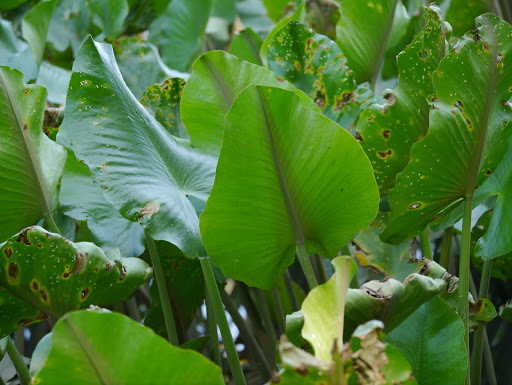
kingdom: Plantae
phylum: Tracheophyta
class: Magnoliopsida
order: Nymphaeales
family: Nymphaeaceae
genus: Nuphar
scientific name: Nuphar advena
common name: Spatter-dock
